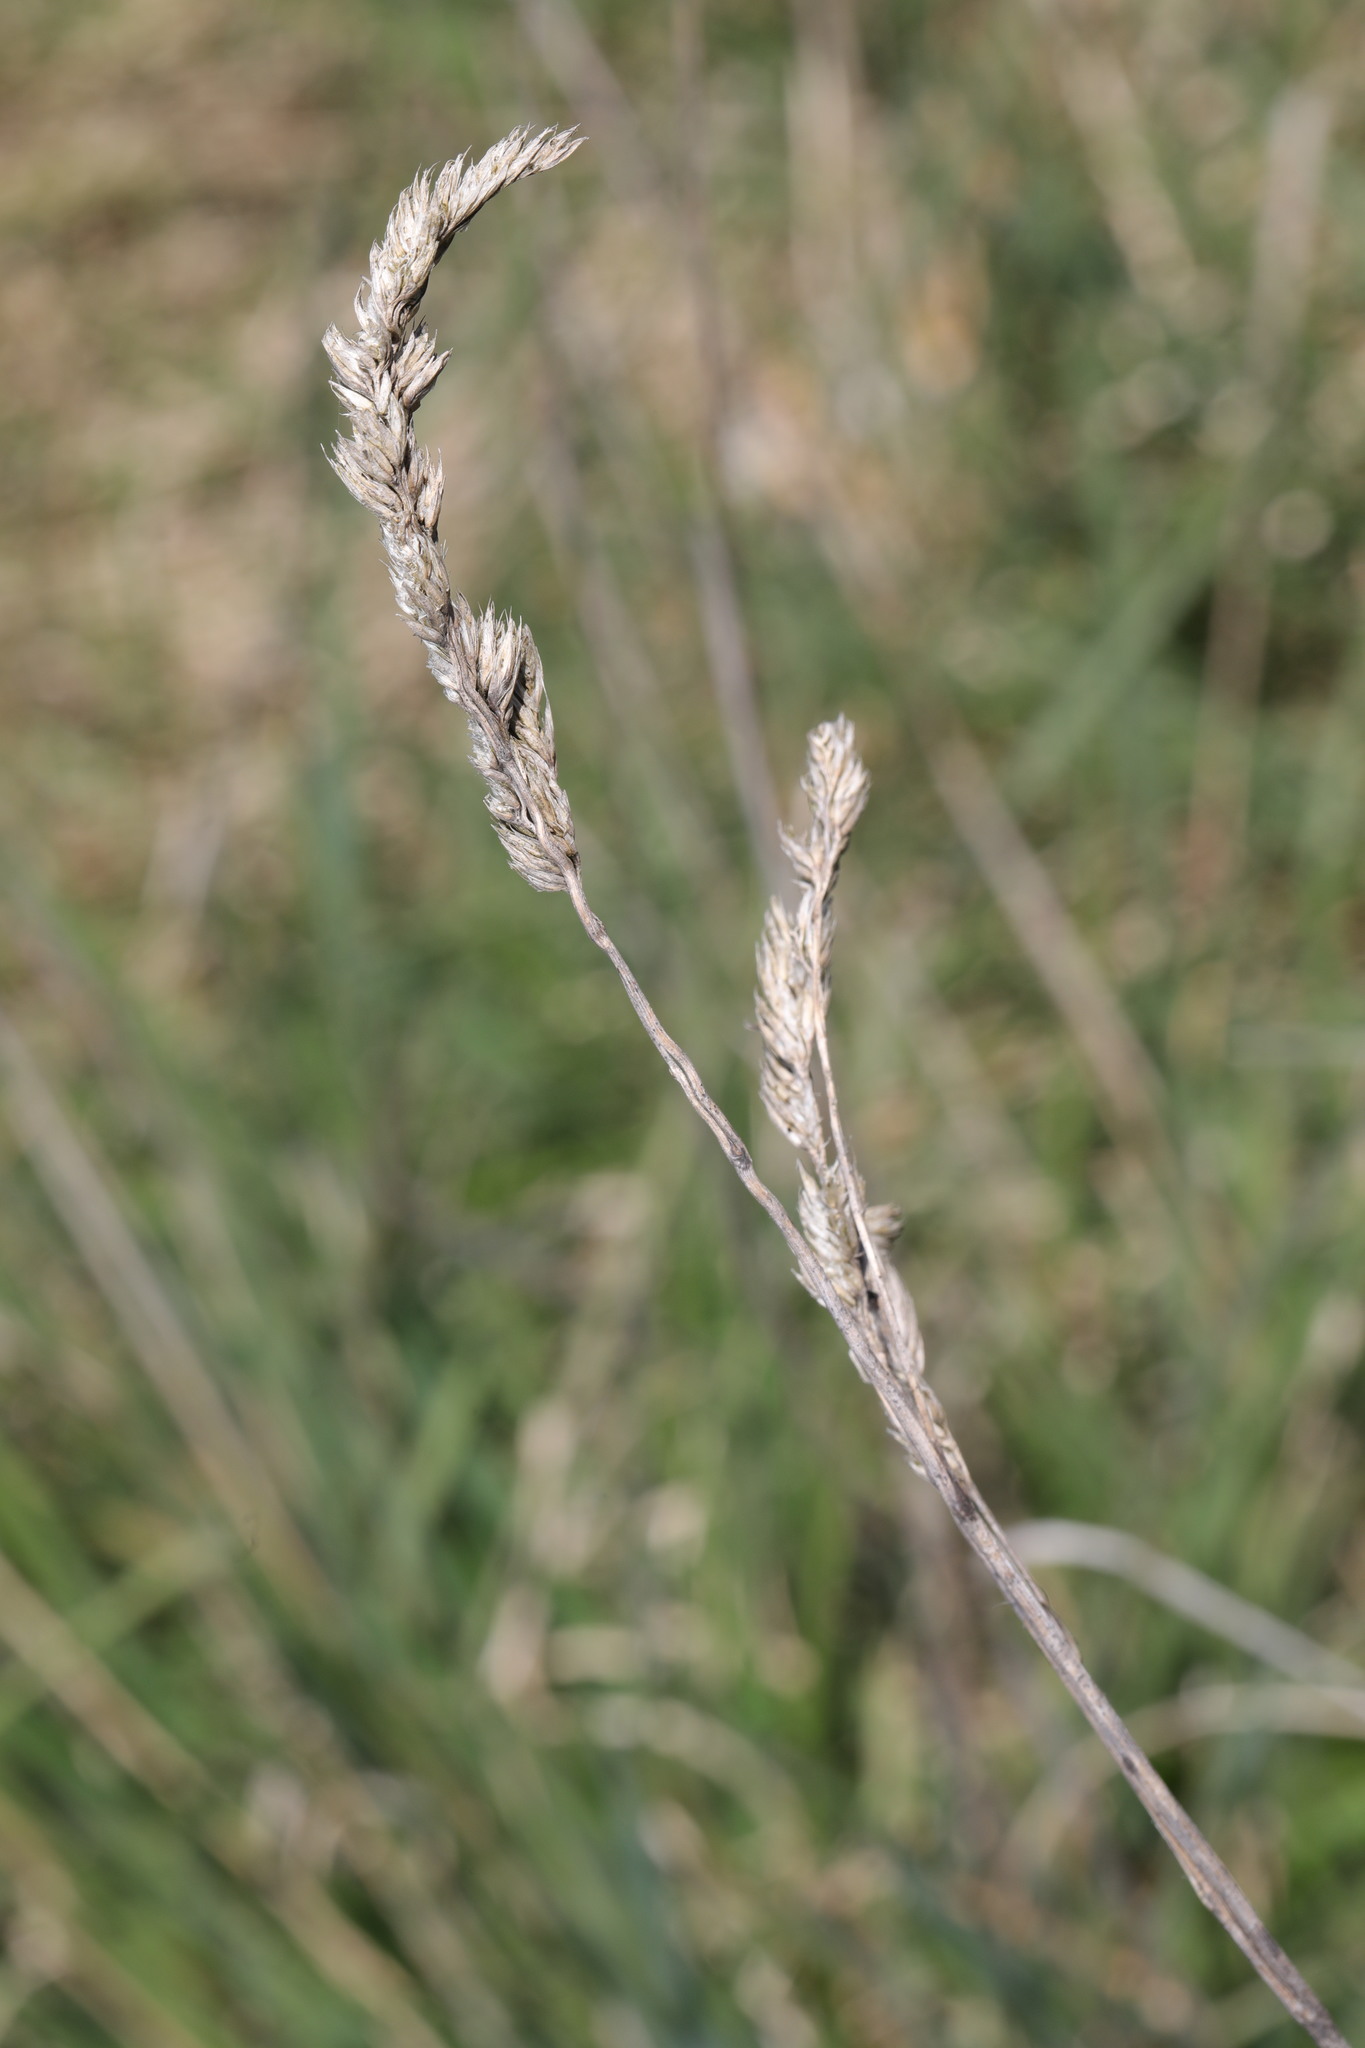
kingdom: Plantae
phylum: Tracheophyta
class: Liliopsida
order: Poales
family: Poaceae
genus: Dactylis
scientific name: Dactylis glomerata
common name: Orchardgrass
